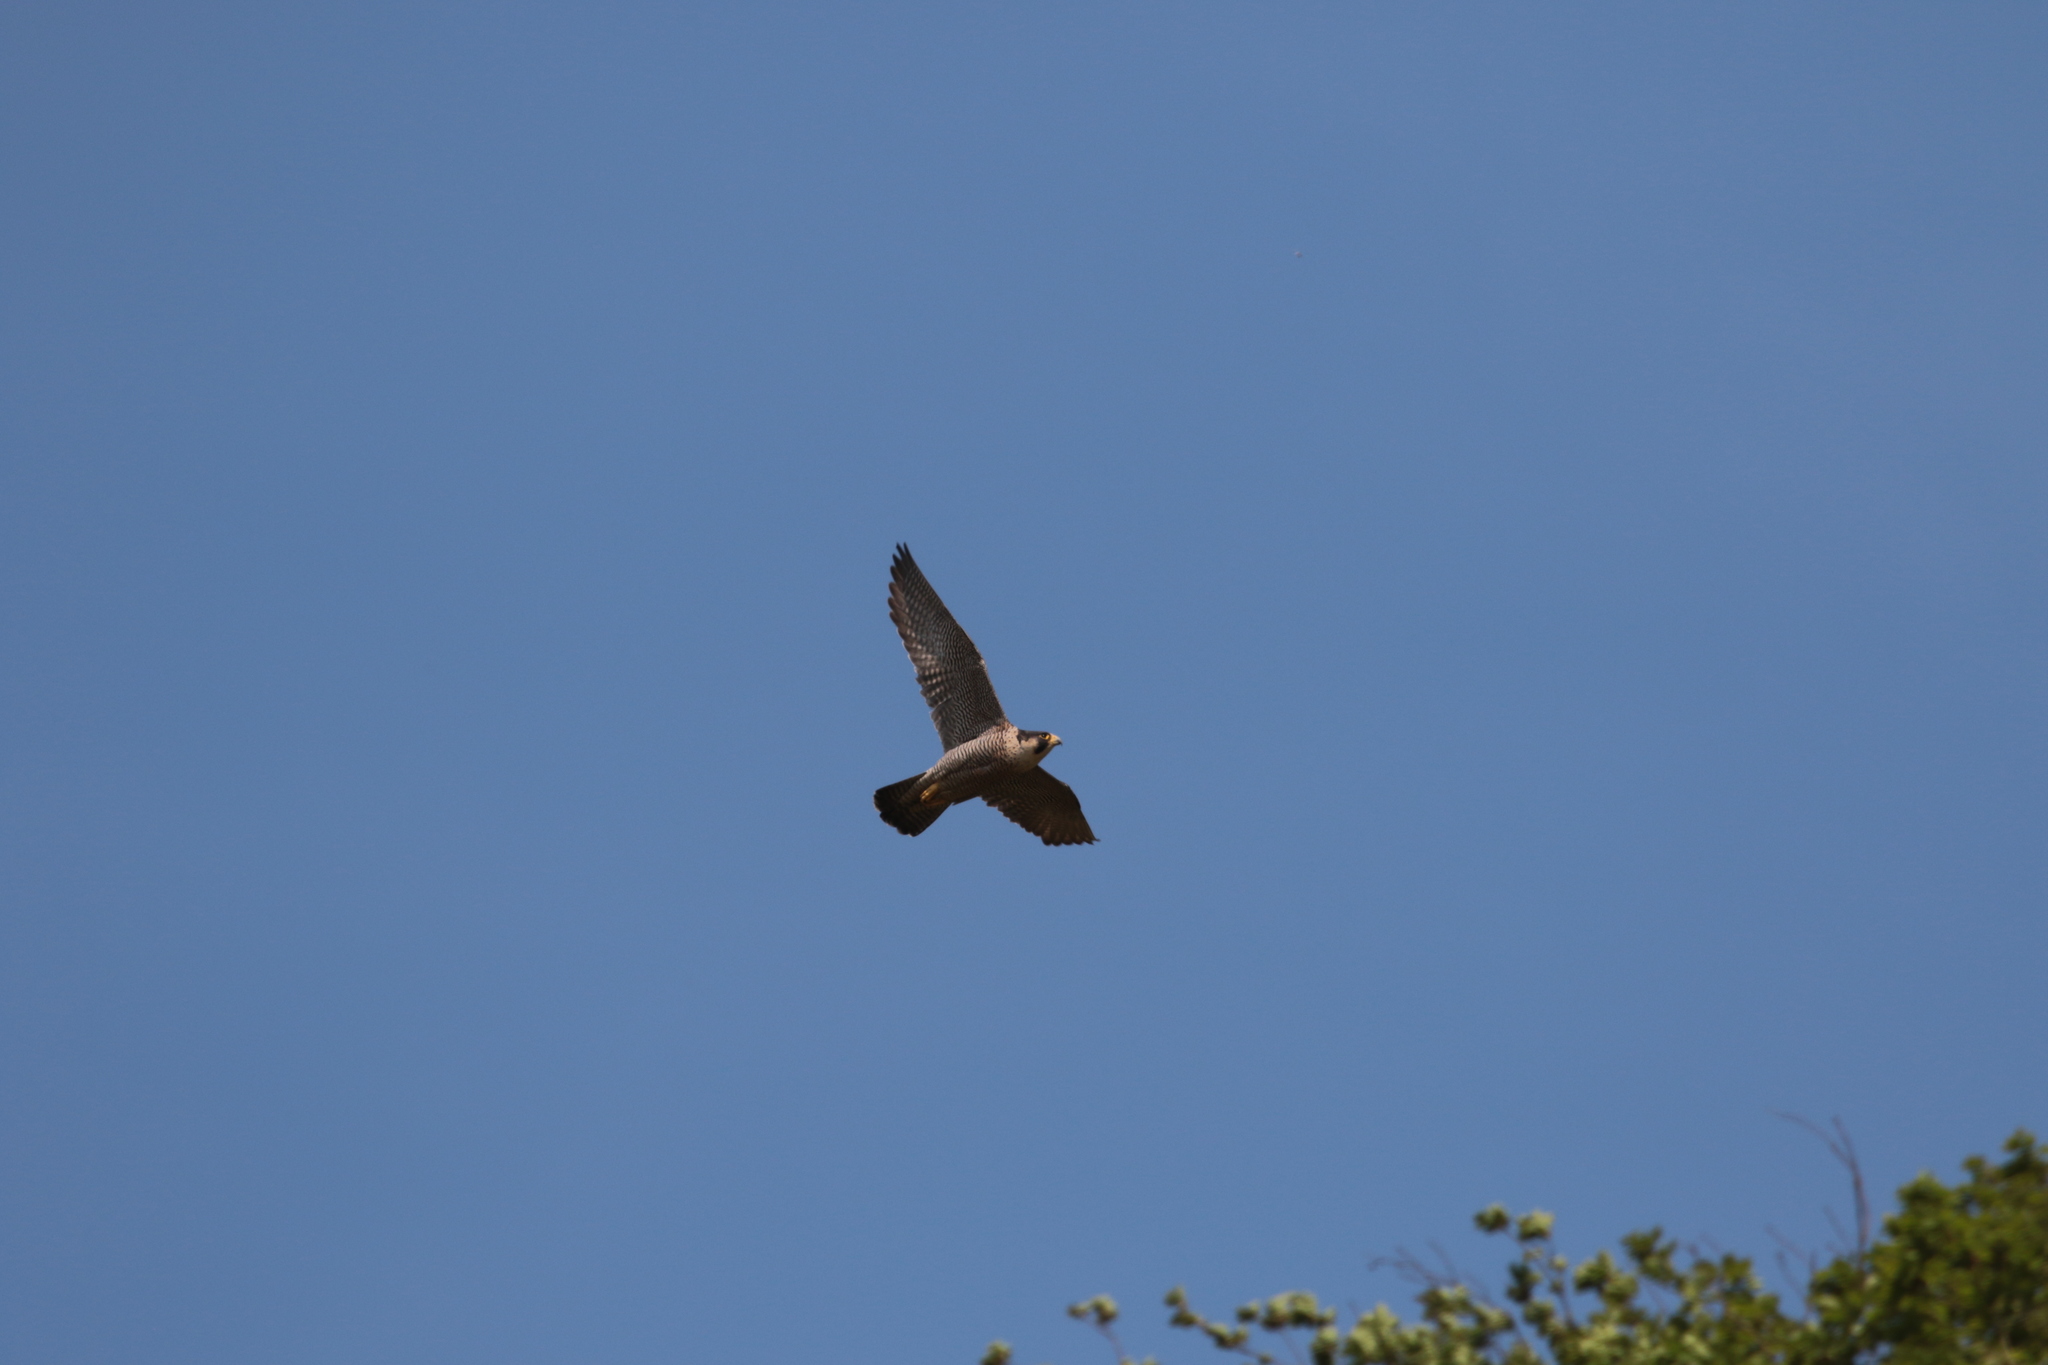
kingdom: Animalia
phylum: Chordata
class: Aves
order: Falconiformes
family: Falconidae
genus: Falco
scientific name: Falco peregrinus
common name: Peregrine falcon
